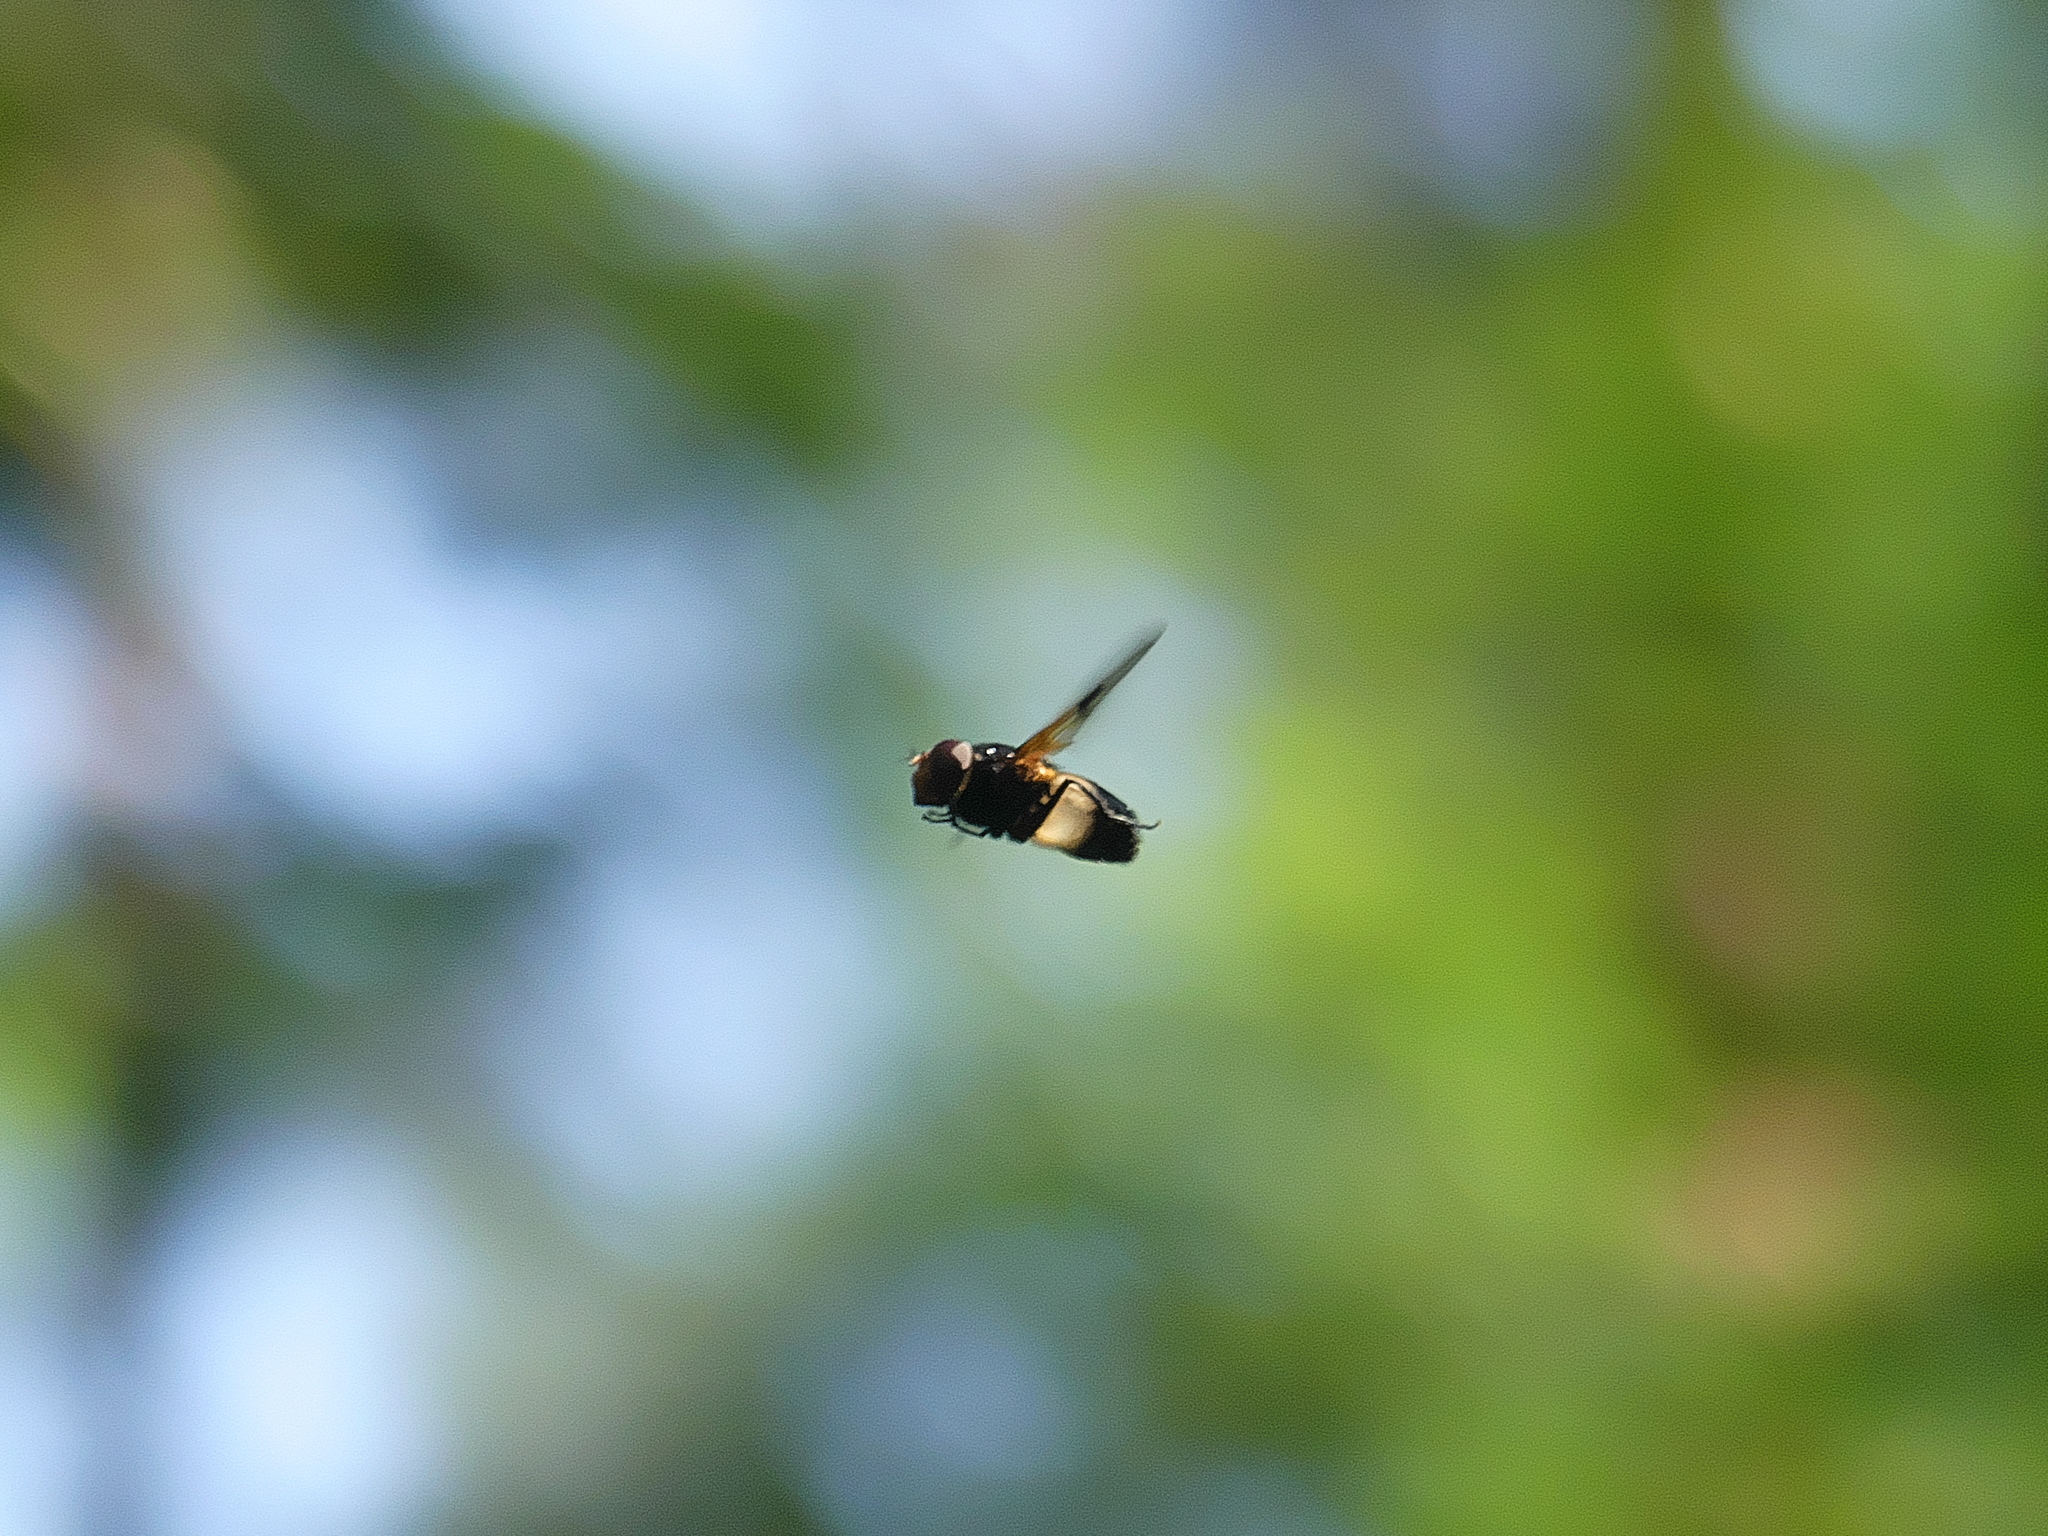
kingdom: Animalia
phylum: Arthropoda
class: Insecta
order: Diptera
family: Syrphidae
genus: Volucella
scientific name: Volucella pellucens
